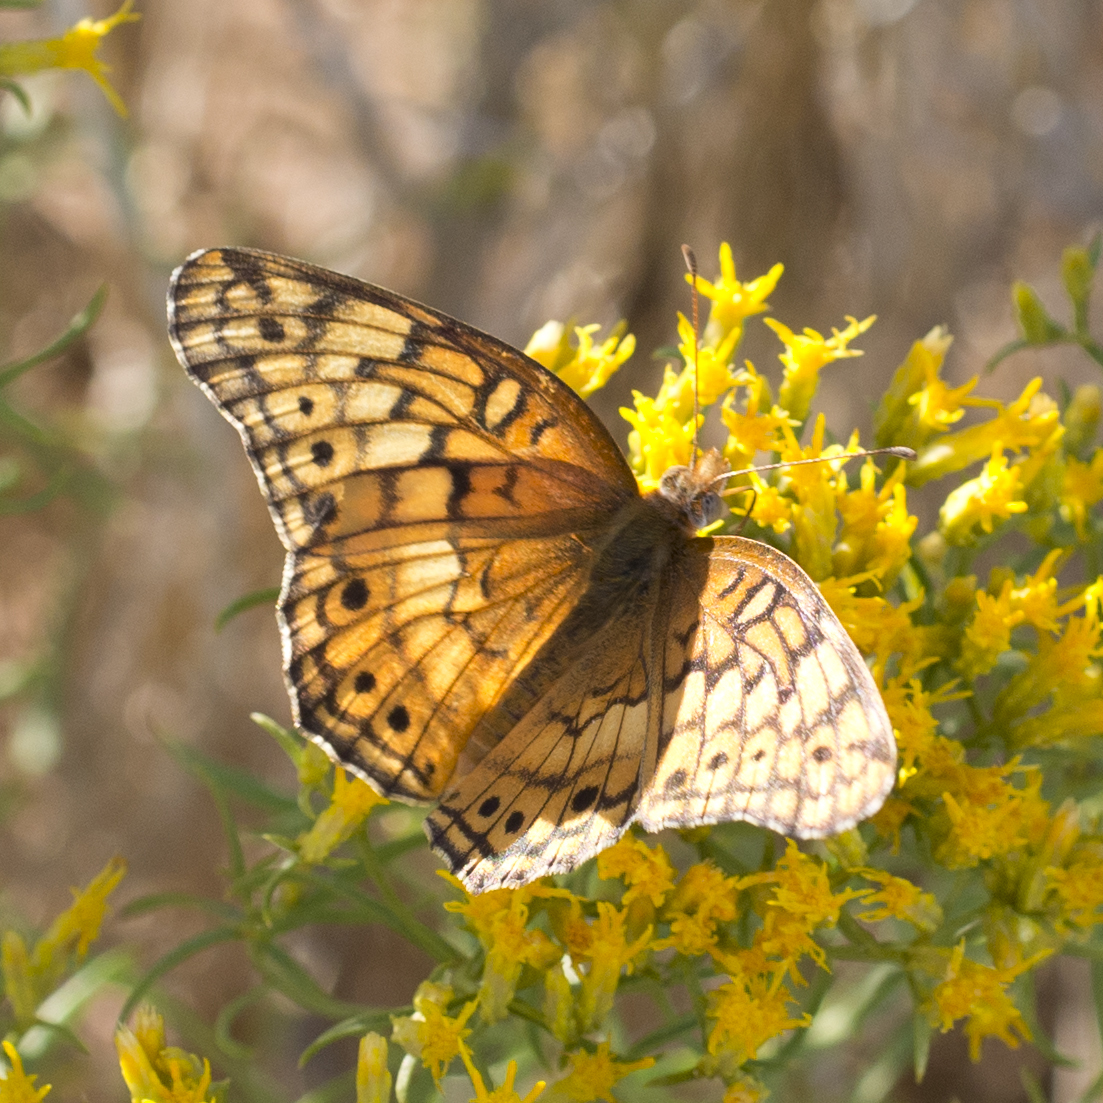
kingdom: Animalia
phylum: Arthropoda
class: Insecta
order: Lepidoptera
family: Nymphalidae
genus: Euptoieta
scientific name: Euptoieta claudia
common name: Variegated fritillary
